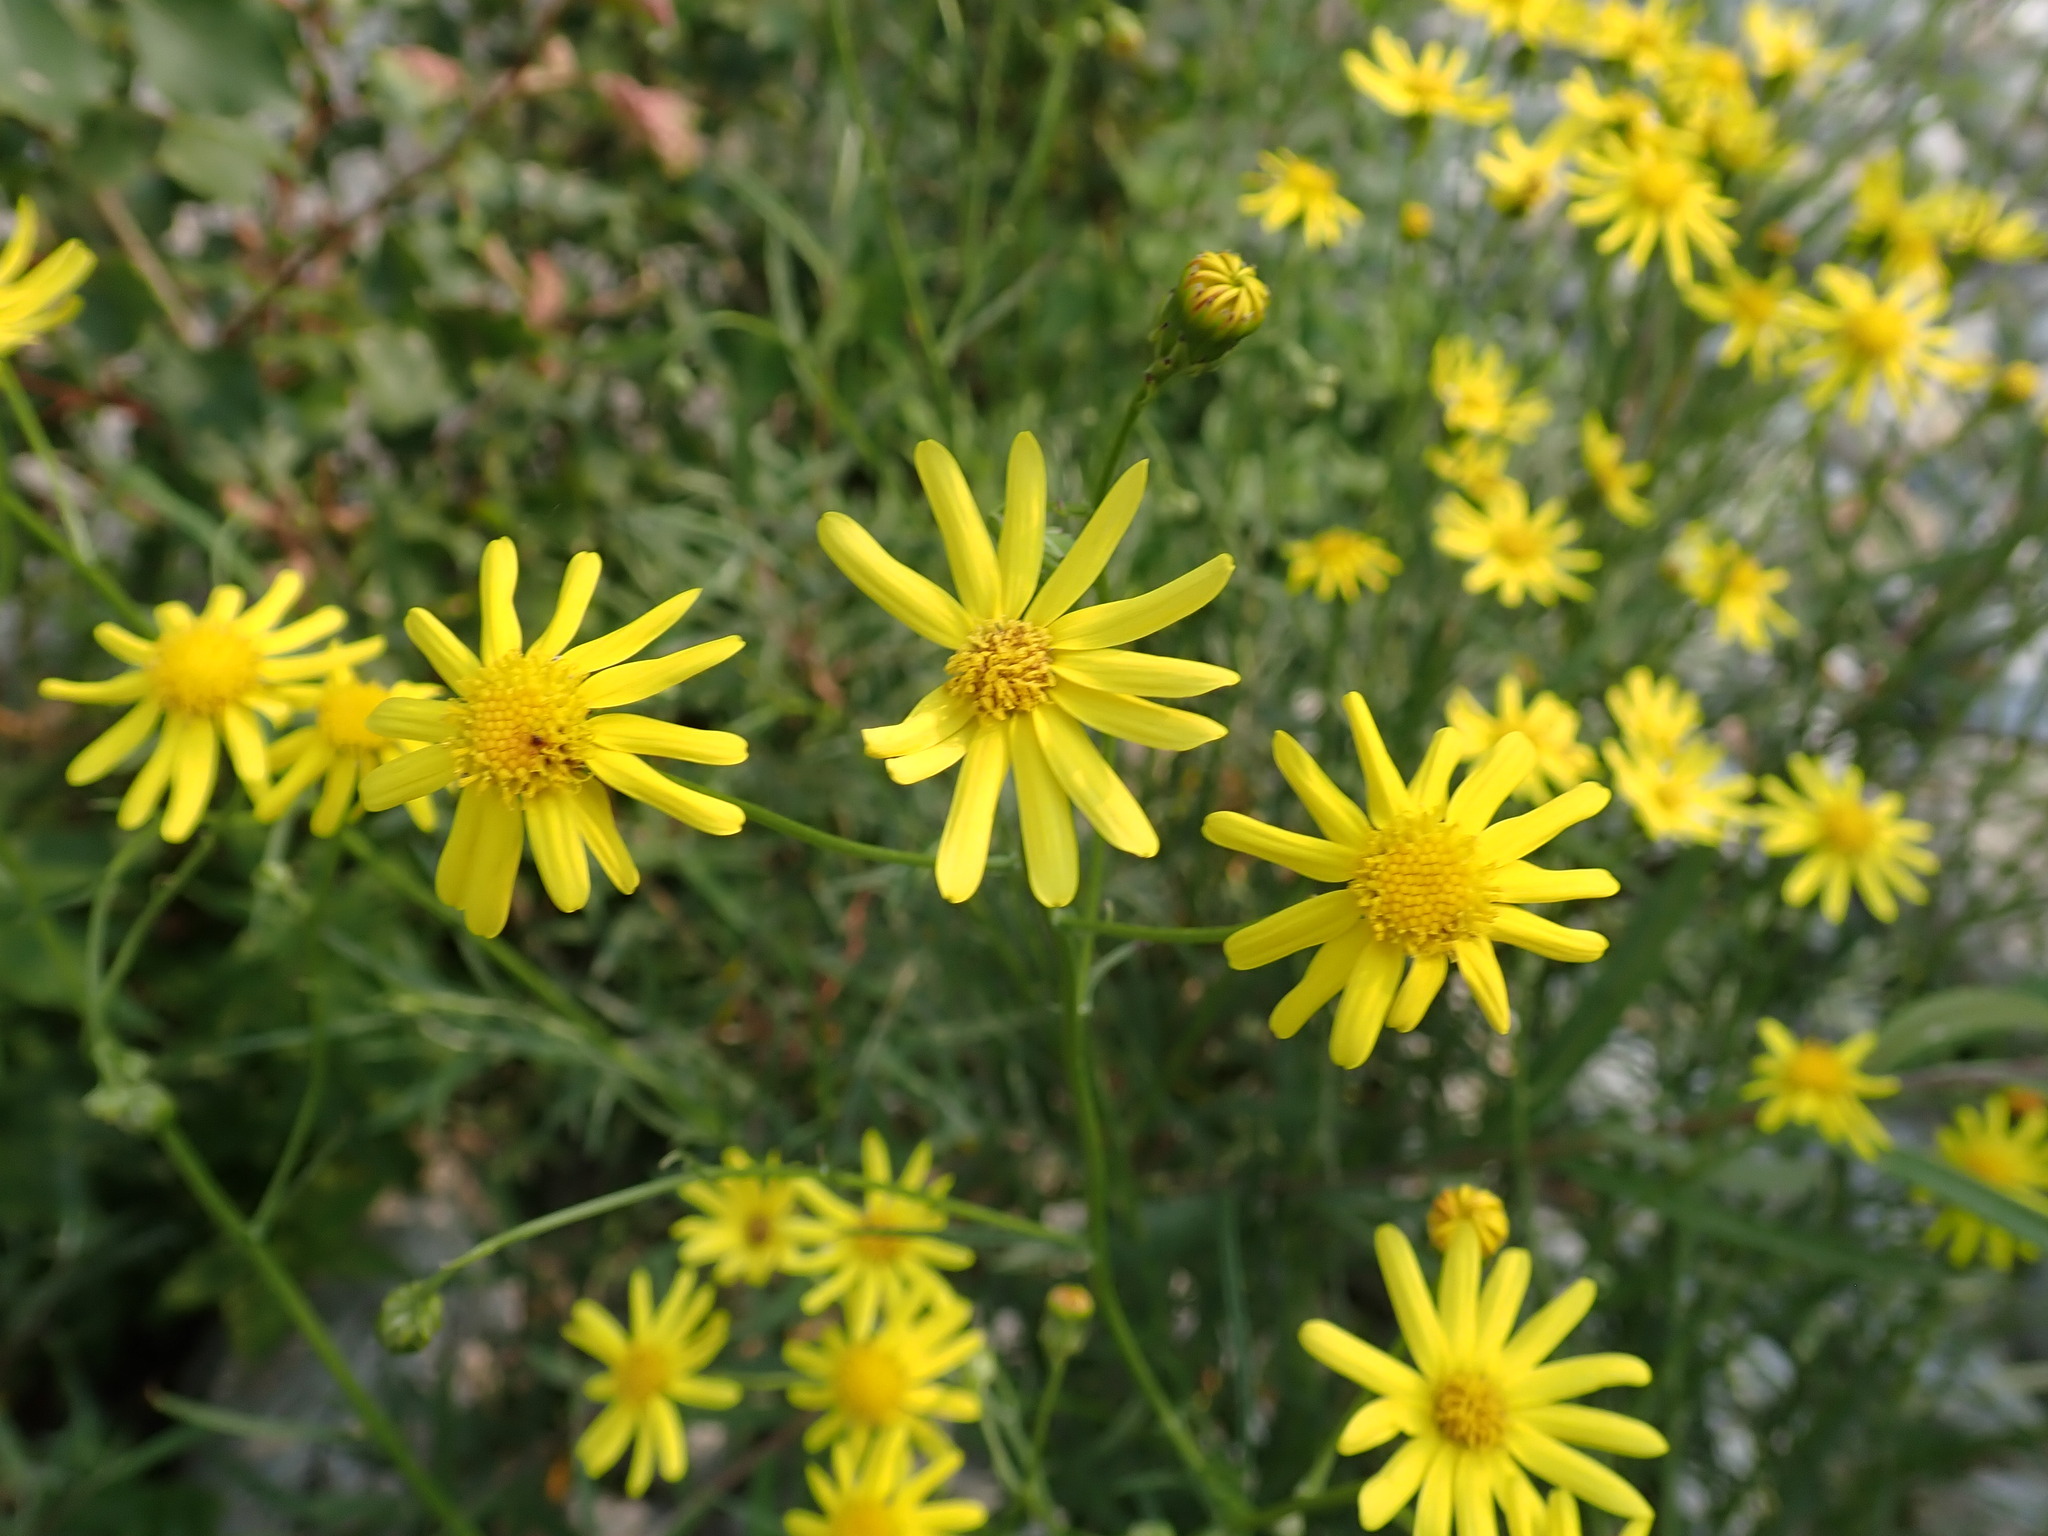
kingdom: Plantae
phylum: Tracheophyta
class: Magnoliopsida
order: Asterales
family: Asteraceae
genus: Senecio
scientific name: Senecio inaequidens
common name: Narrow-leaved ragwort
